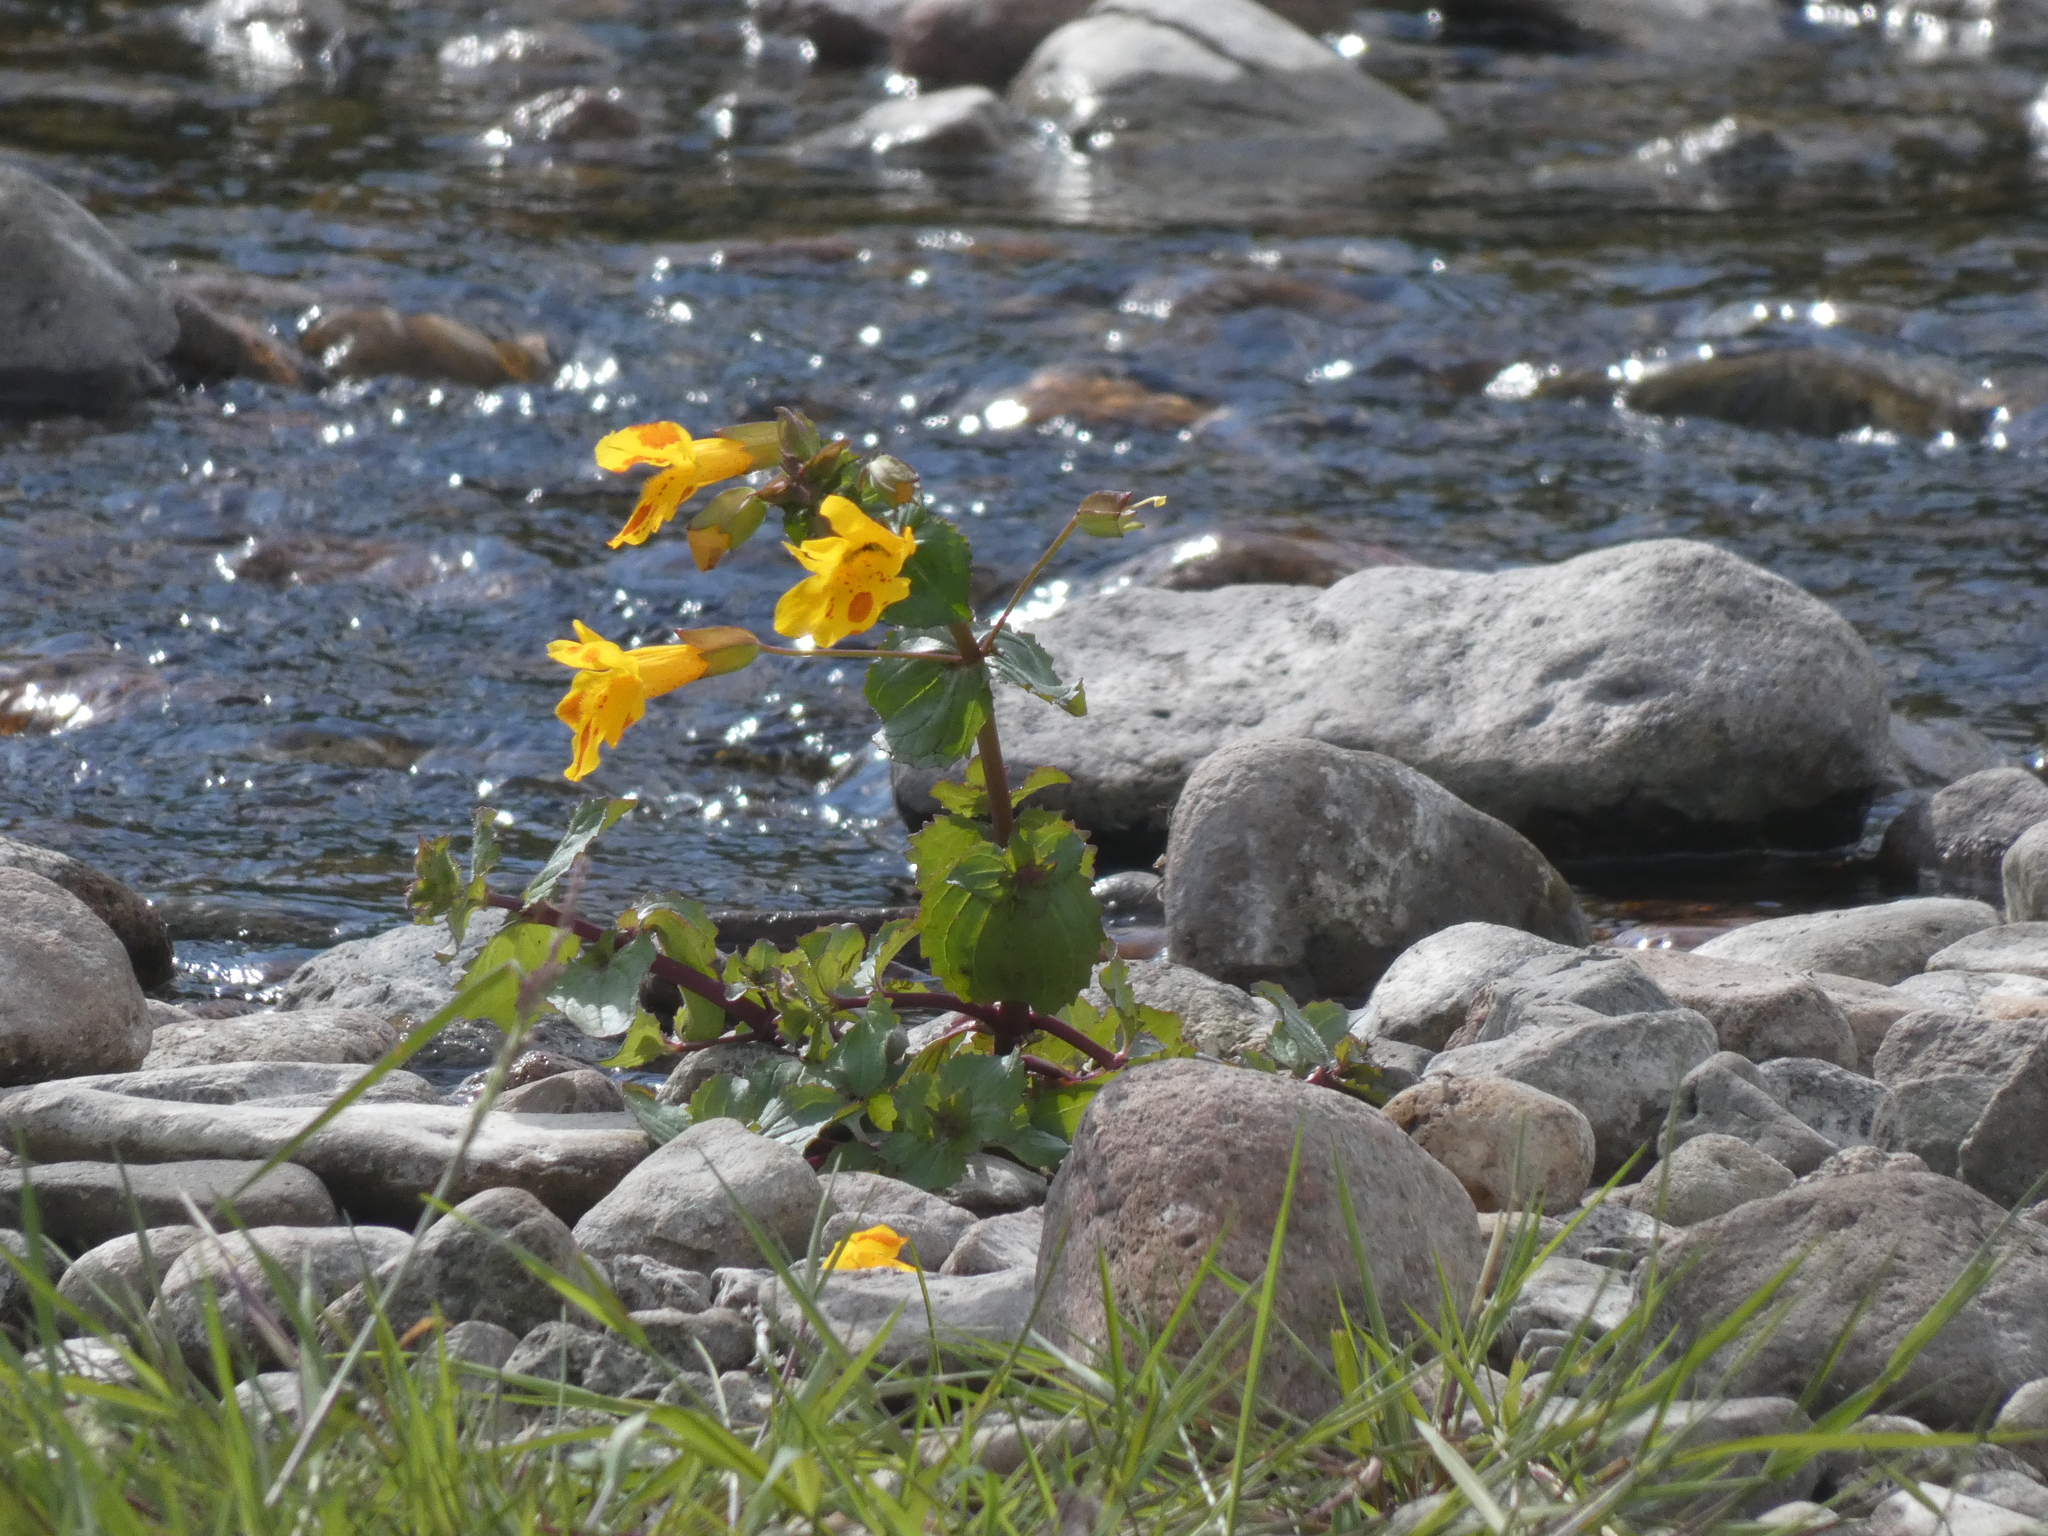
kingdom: Plantae
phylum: Tracheophyta
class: Magnoliopsida
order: Lamiales
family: Phrymaceae
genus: Erythranthe
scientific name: Erythranthe robertsii
